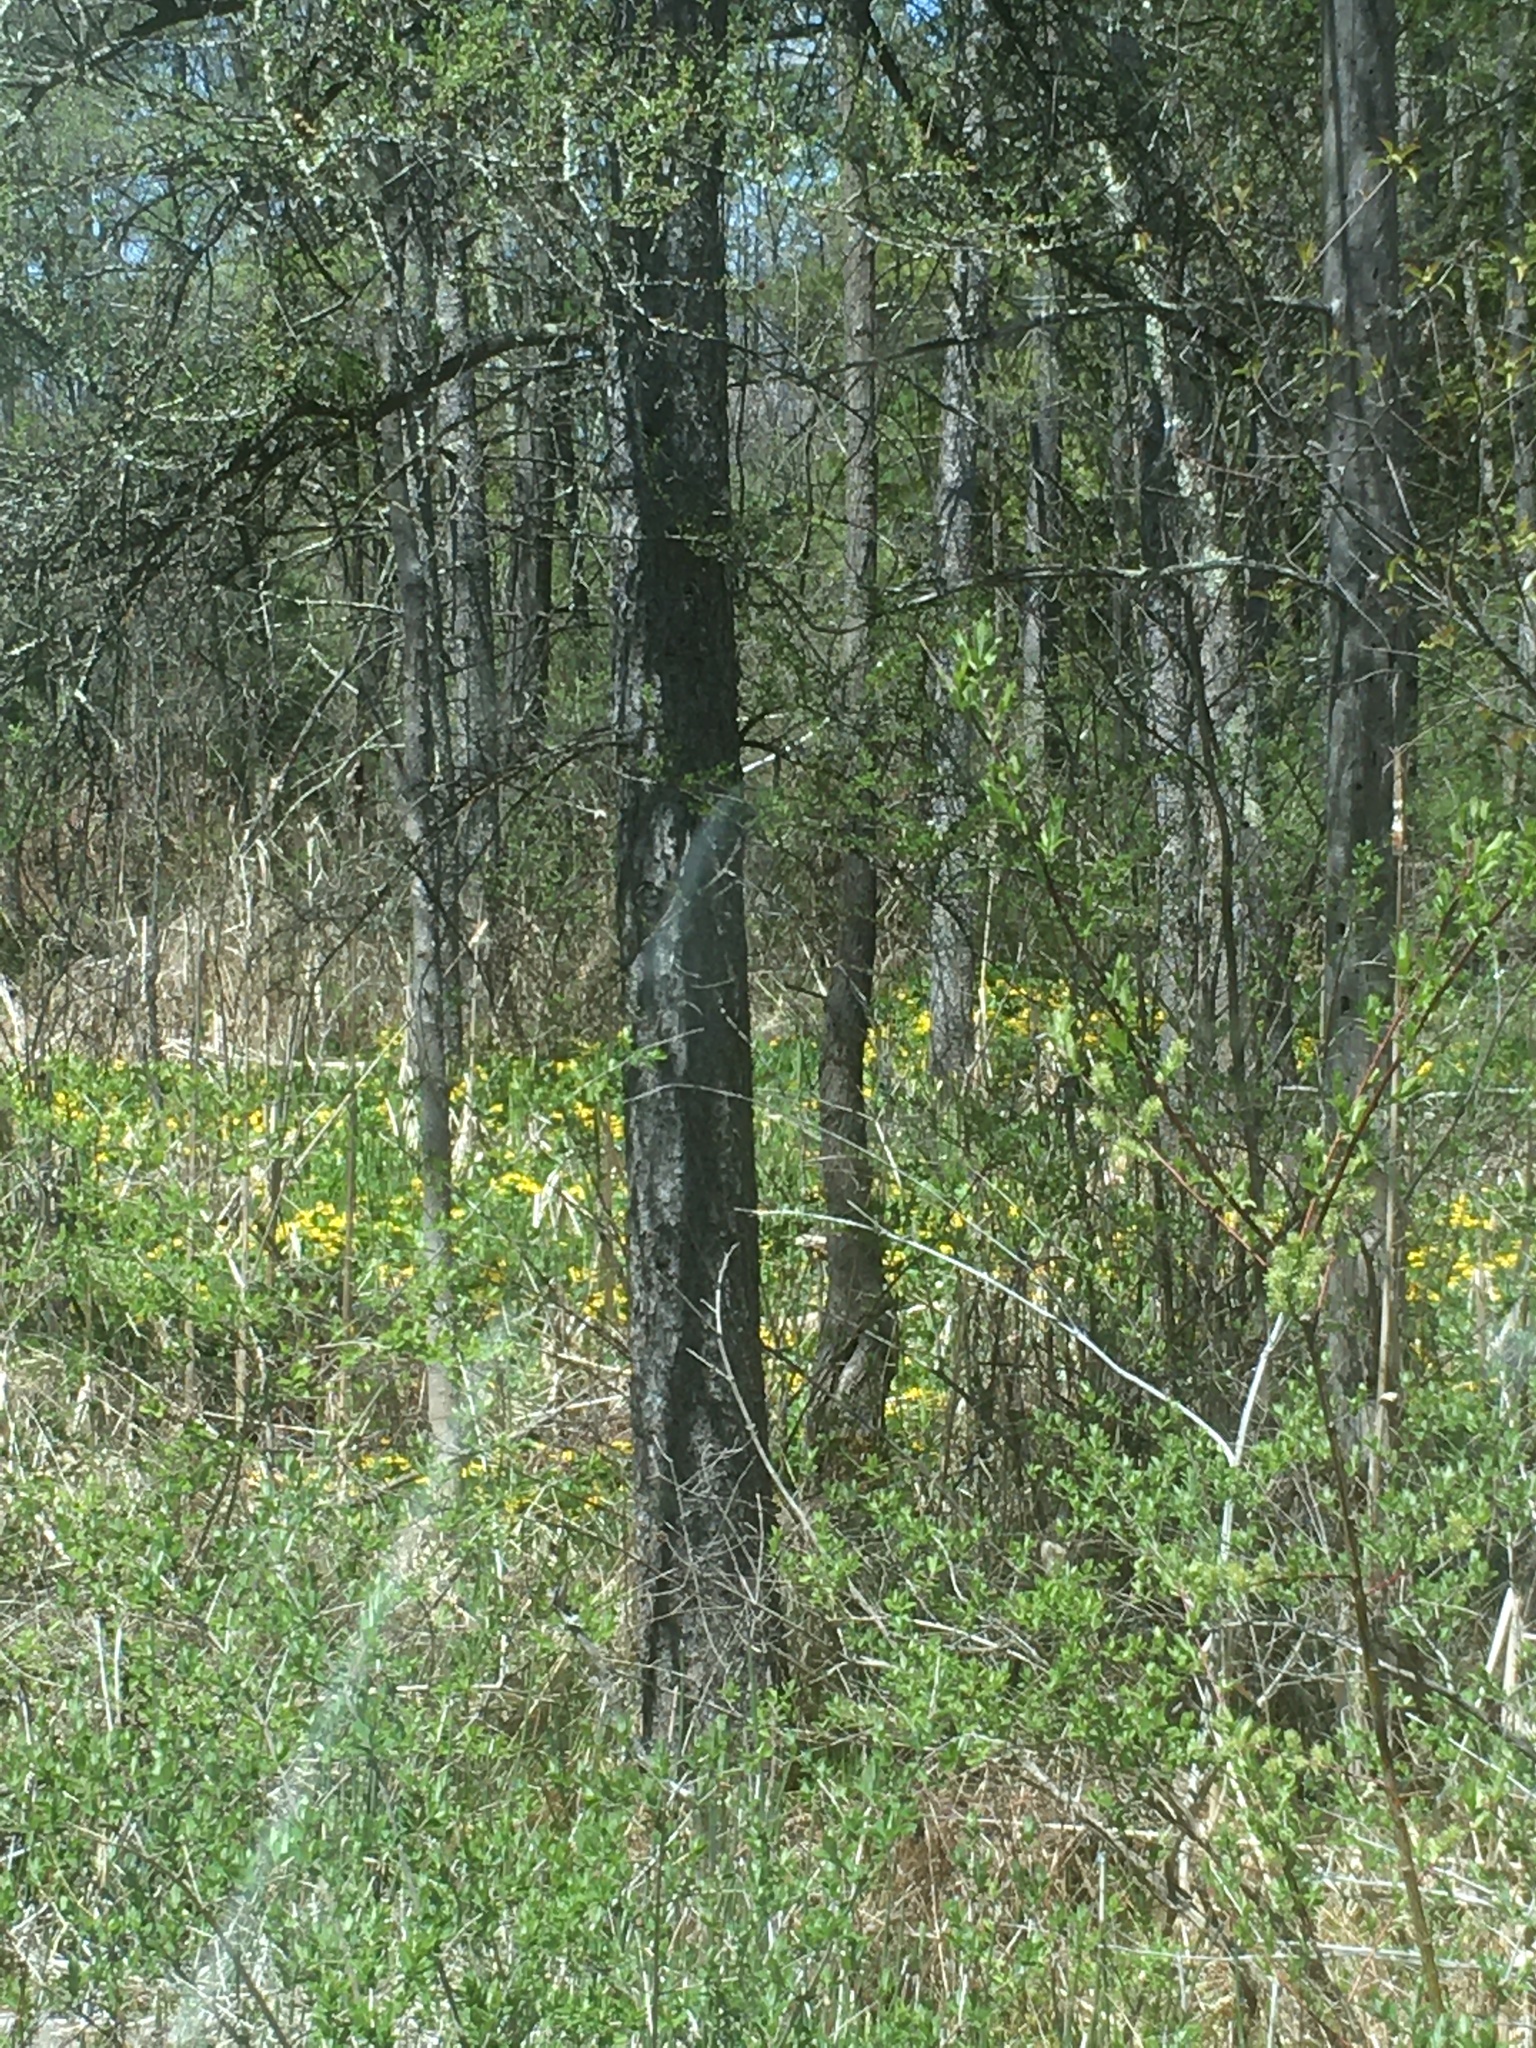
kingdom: Plantae
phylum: Tracheophyta
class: Magnoliopsida
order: Ranunculales
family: Ranunculaceae
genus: Caltha
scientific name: Caltha palustris
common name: Marsh marigold
